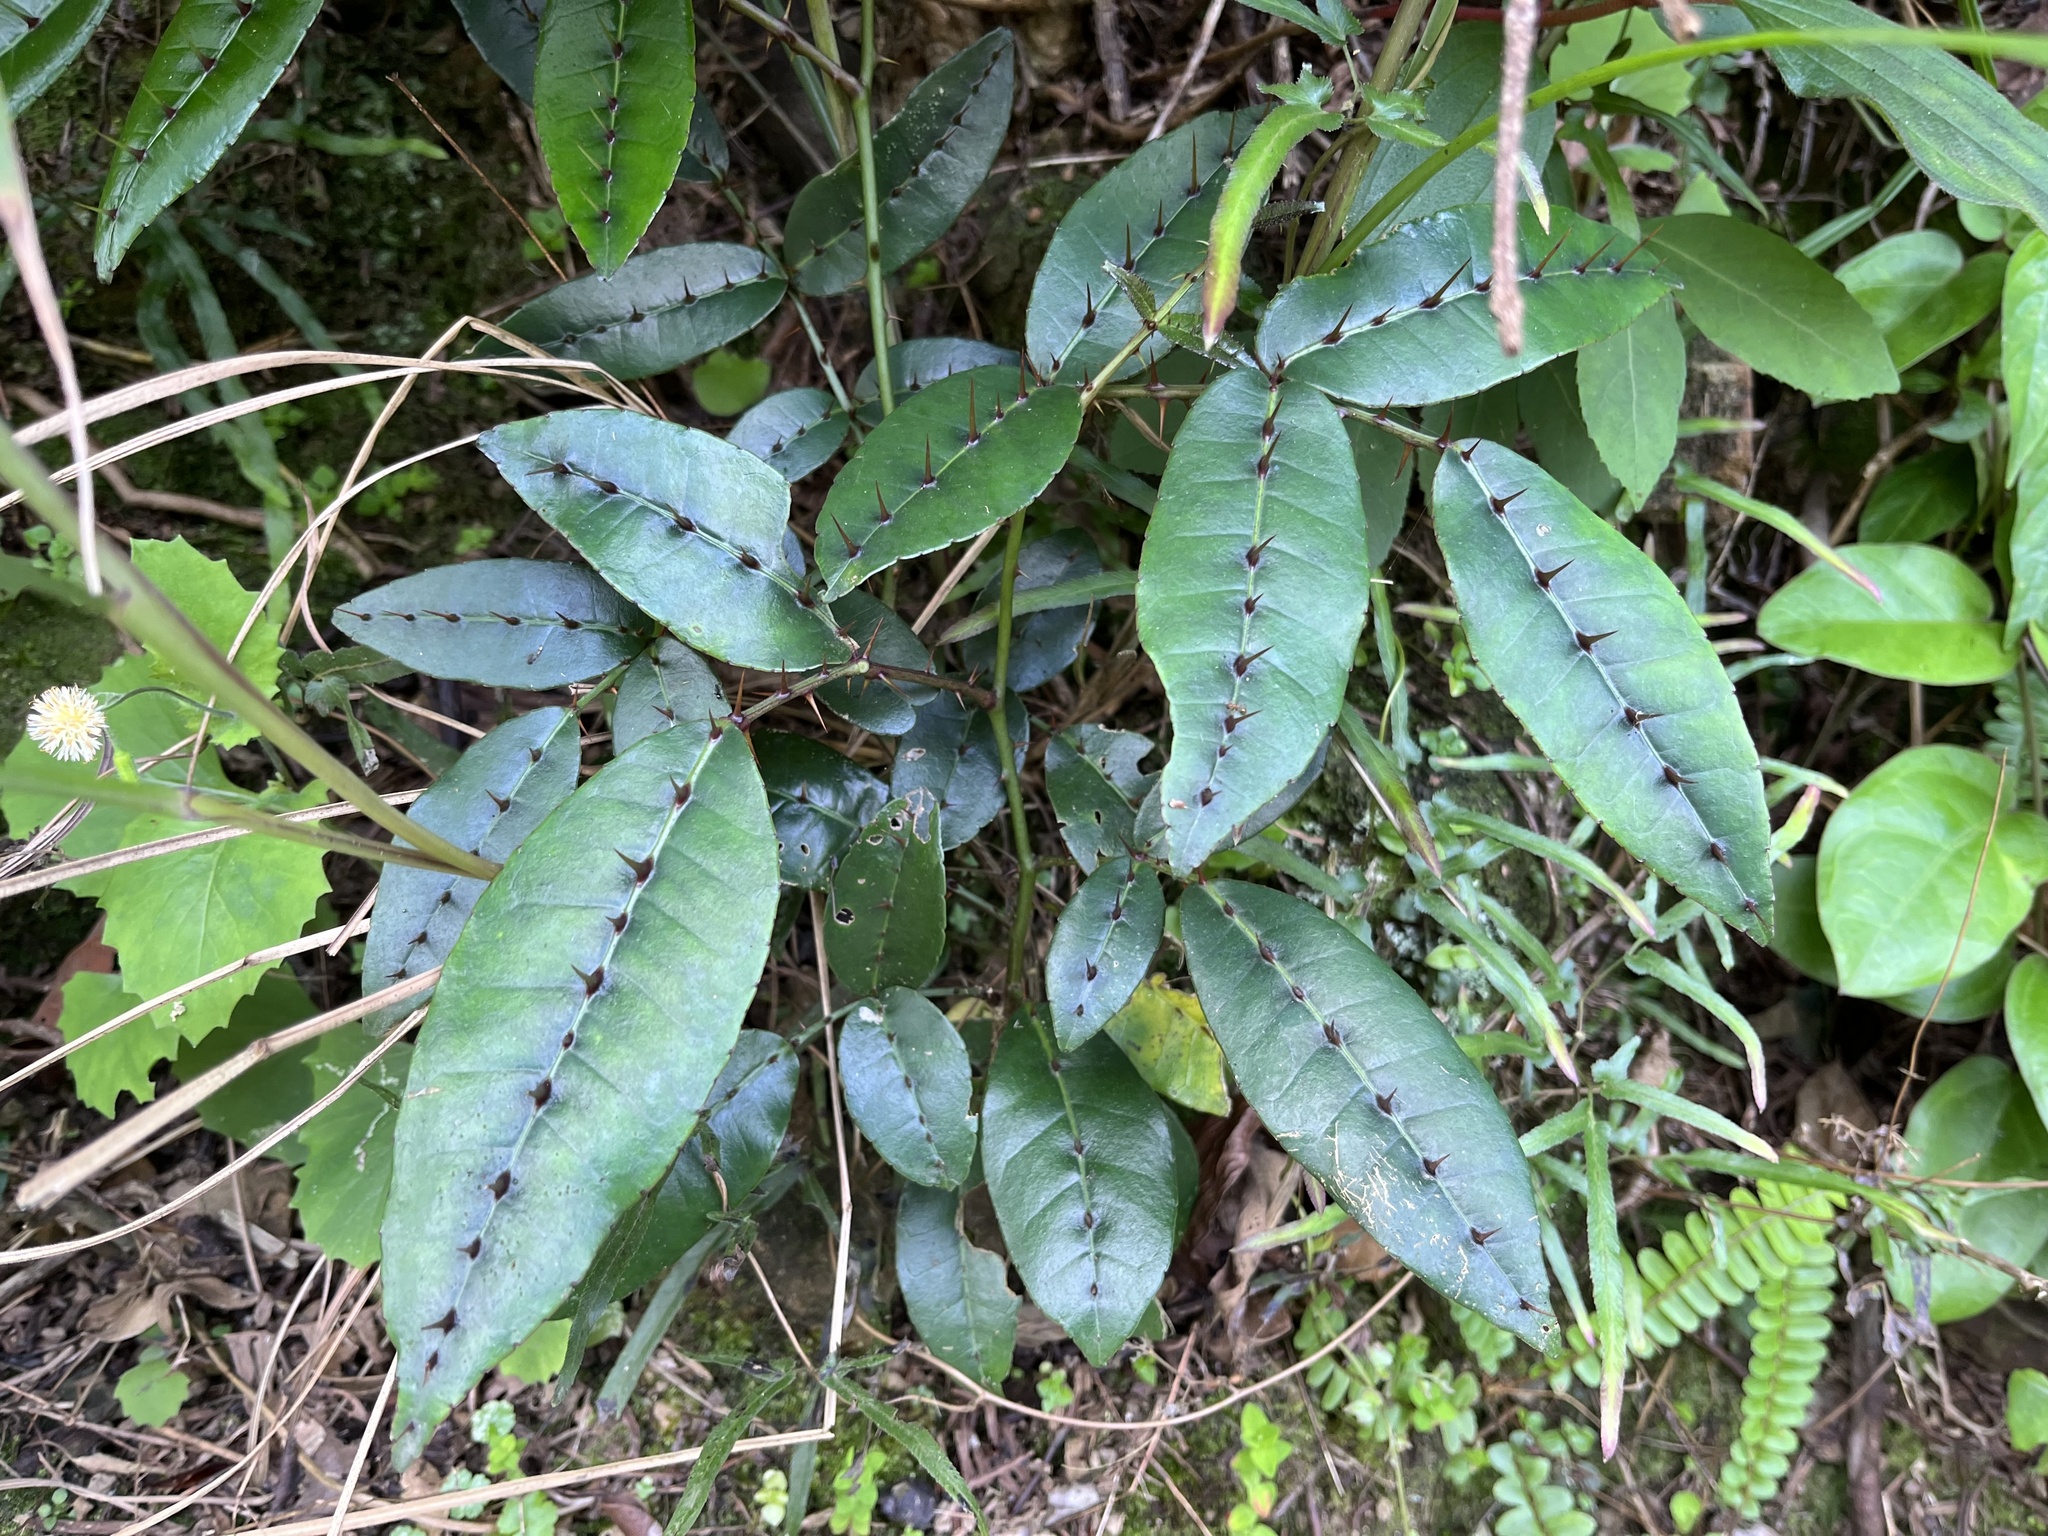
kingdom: Plantae
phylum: Tracheophyta
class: Magnoliopsida
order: Sapindales
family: Rutaceae
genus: Zanthoxylum
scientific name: Zanthoxylum nitidum
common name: Shiny-leaf prickly-ash
